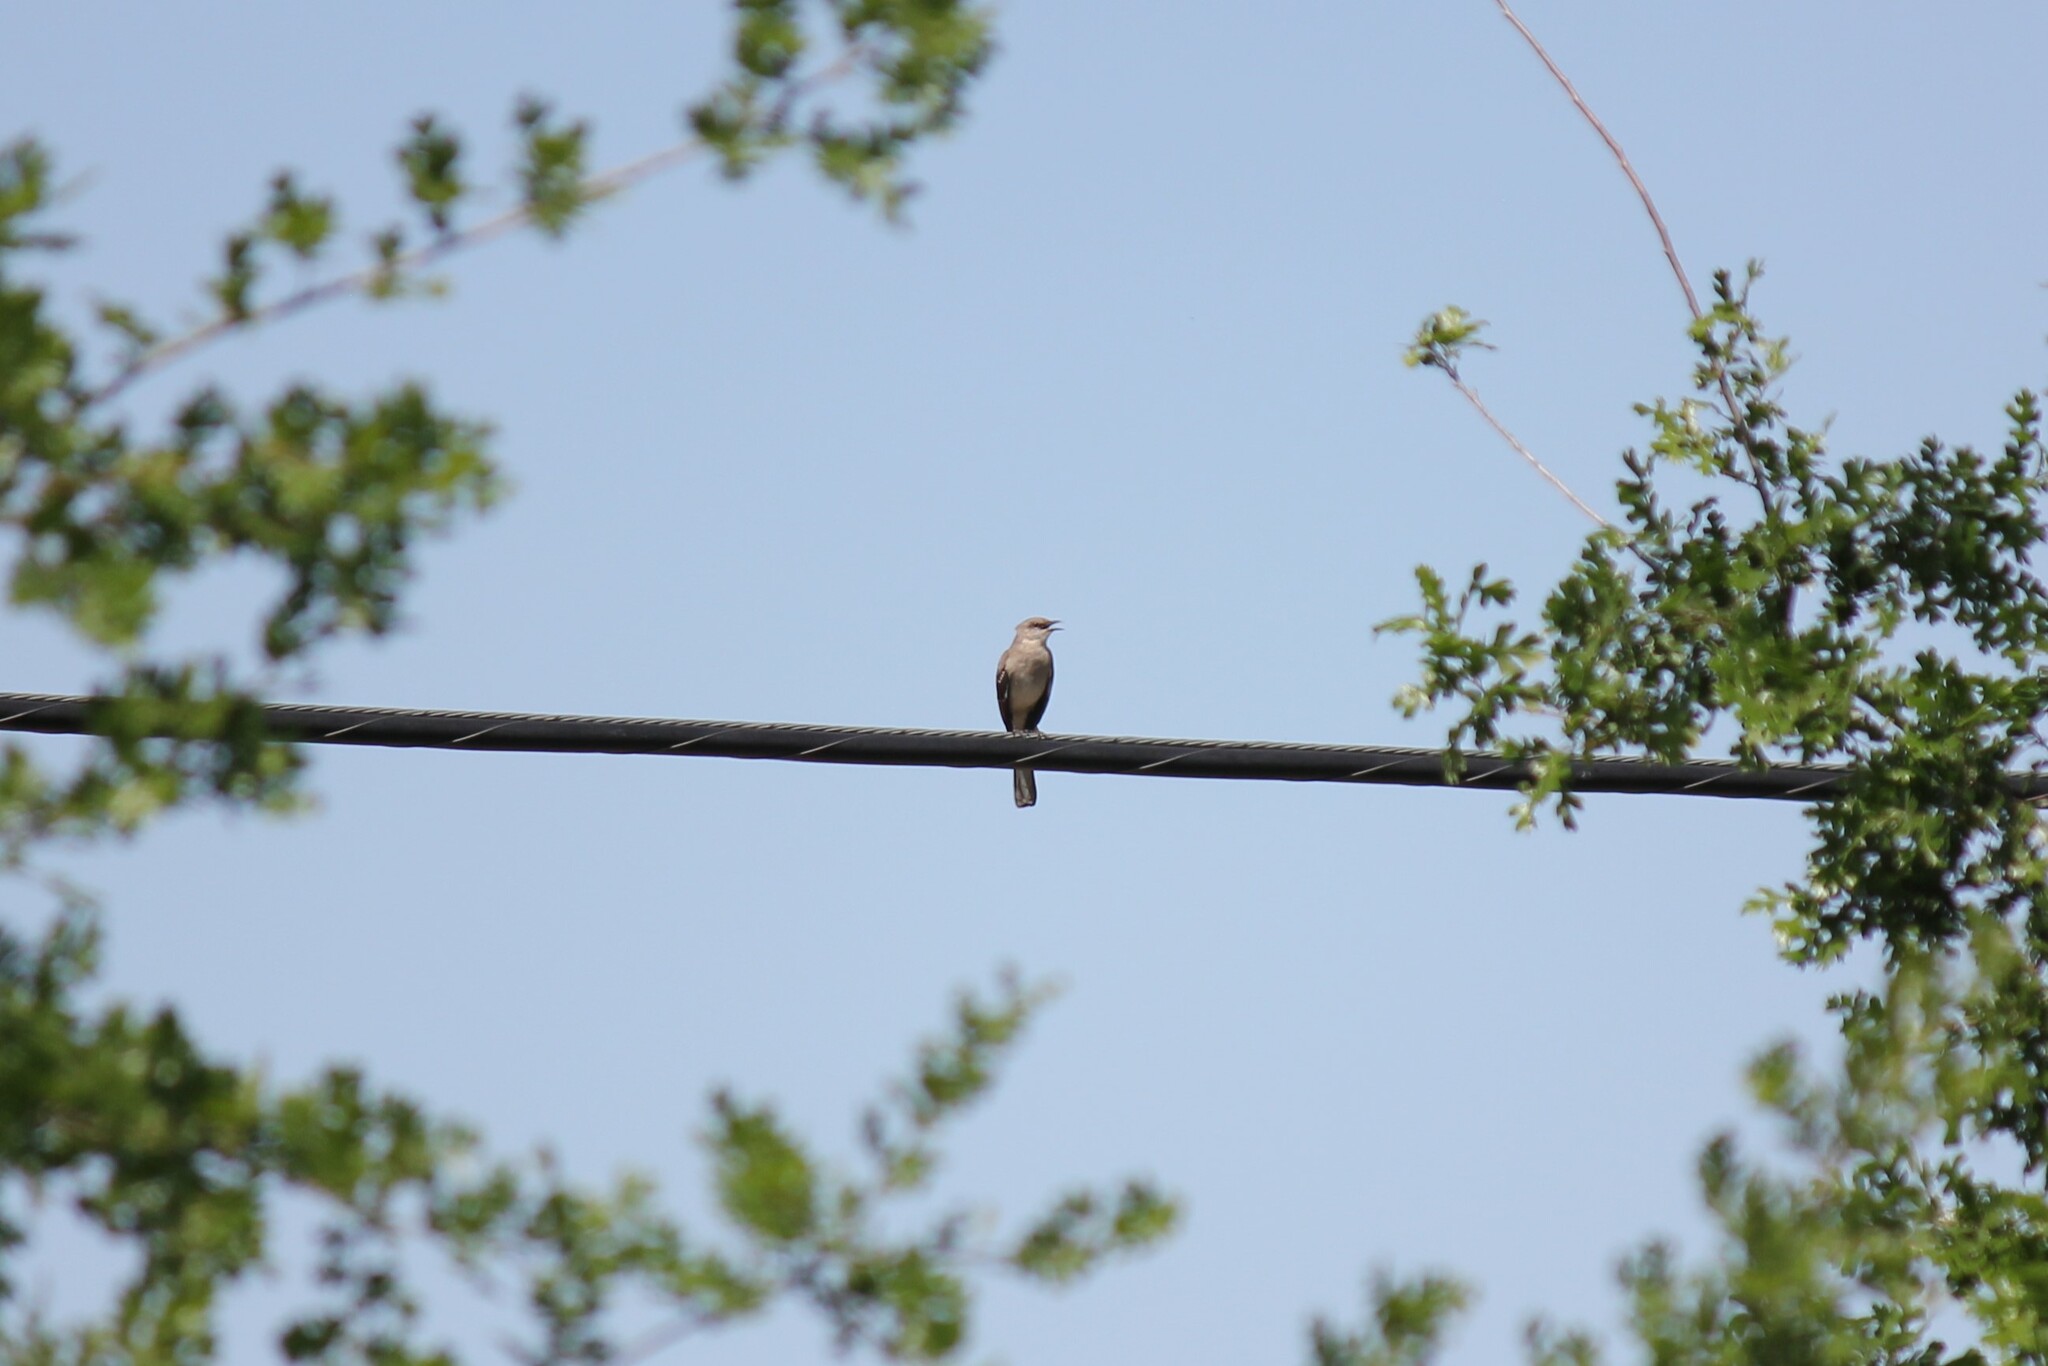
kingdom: Animalia
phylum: Chordata
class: Aves
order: Passeriformes
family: Mimidae
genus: Mimus
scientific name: Mimus polyglottos
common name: Northern mockingbird
